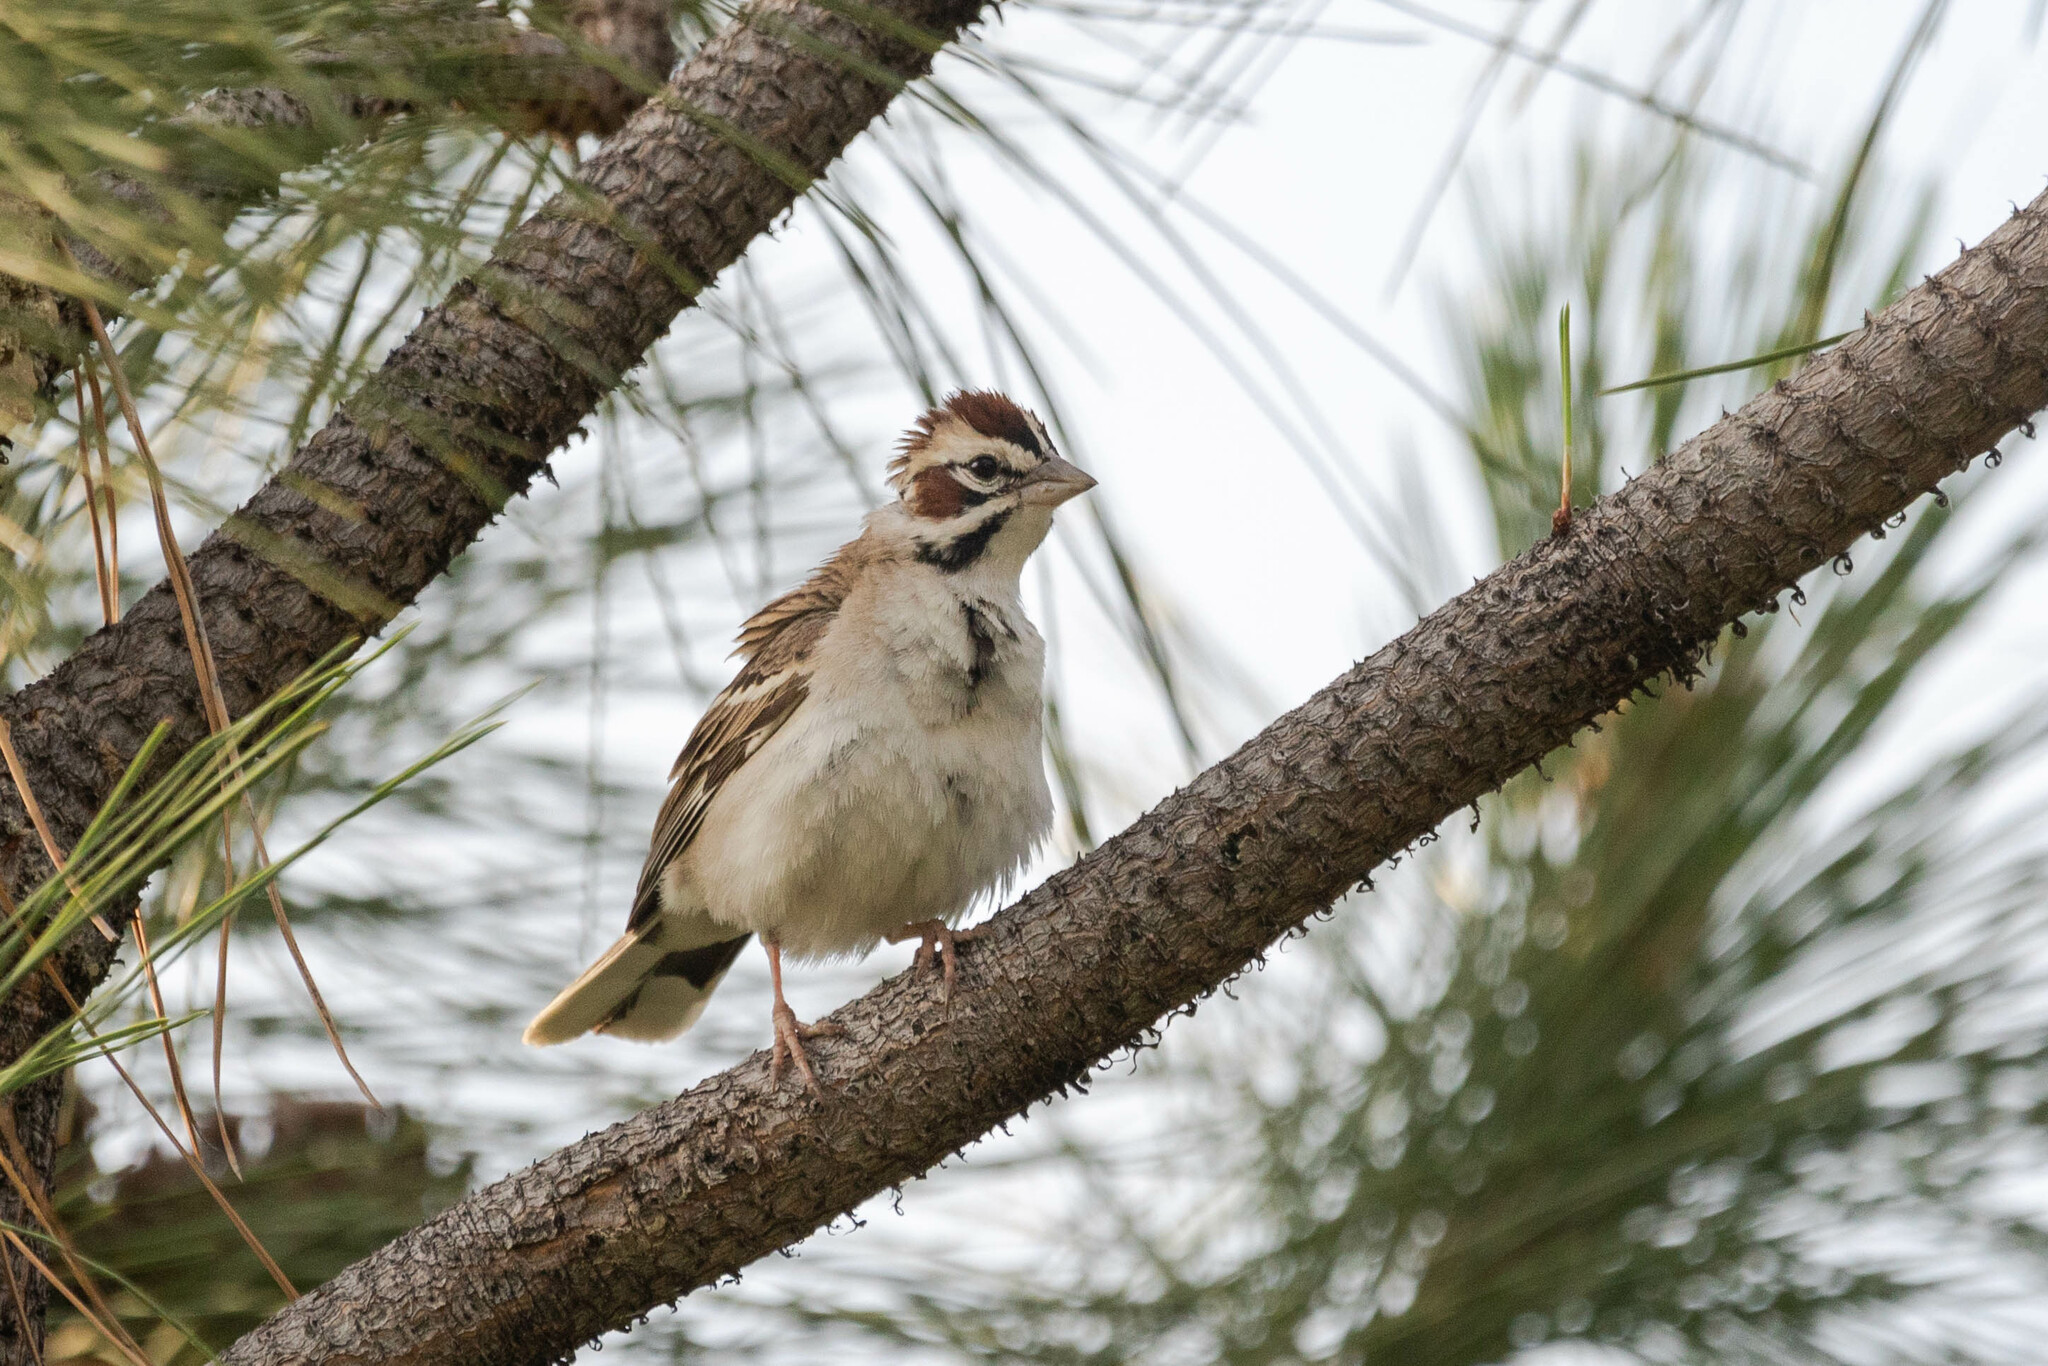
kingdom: Animalia
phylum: Chordata
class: Aves
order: Passeriformes
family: Passerellidae
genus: Chondestes
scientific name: Chondestes grammacus
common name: Lark sparrow
